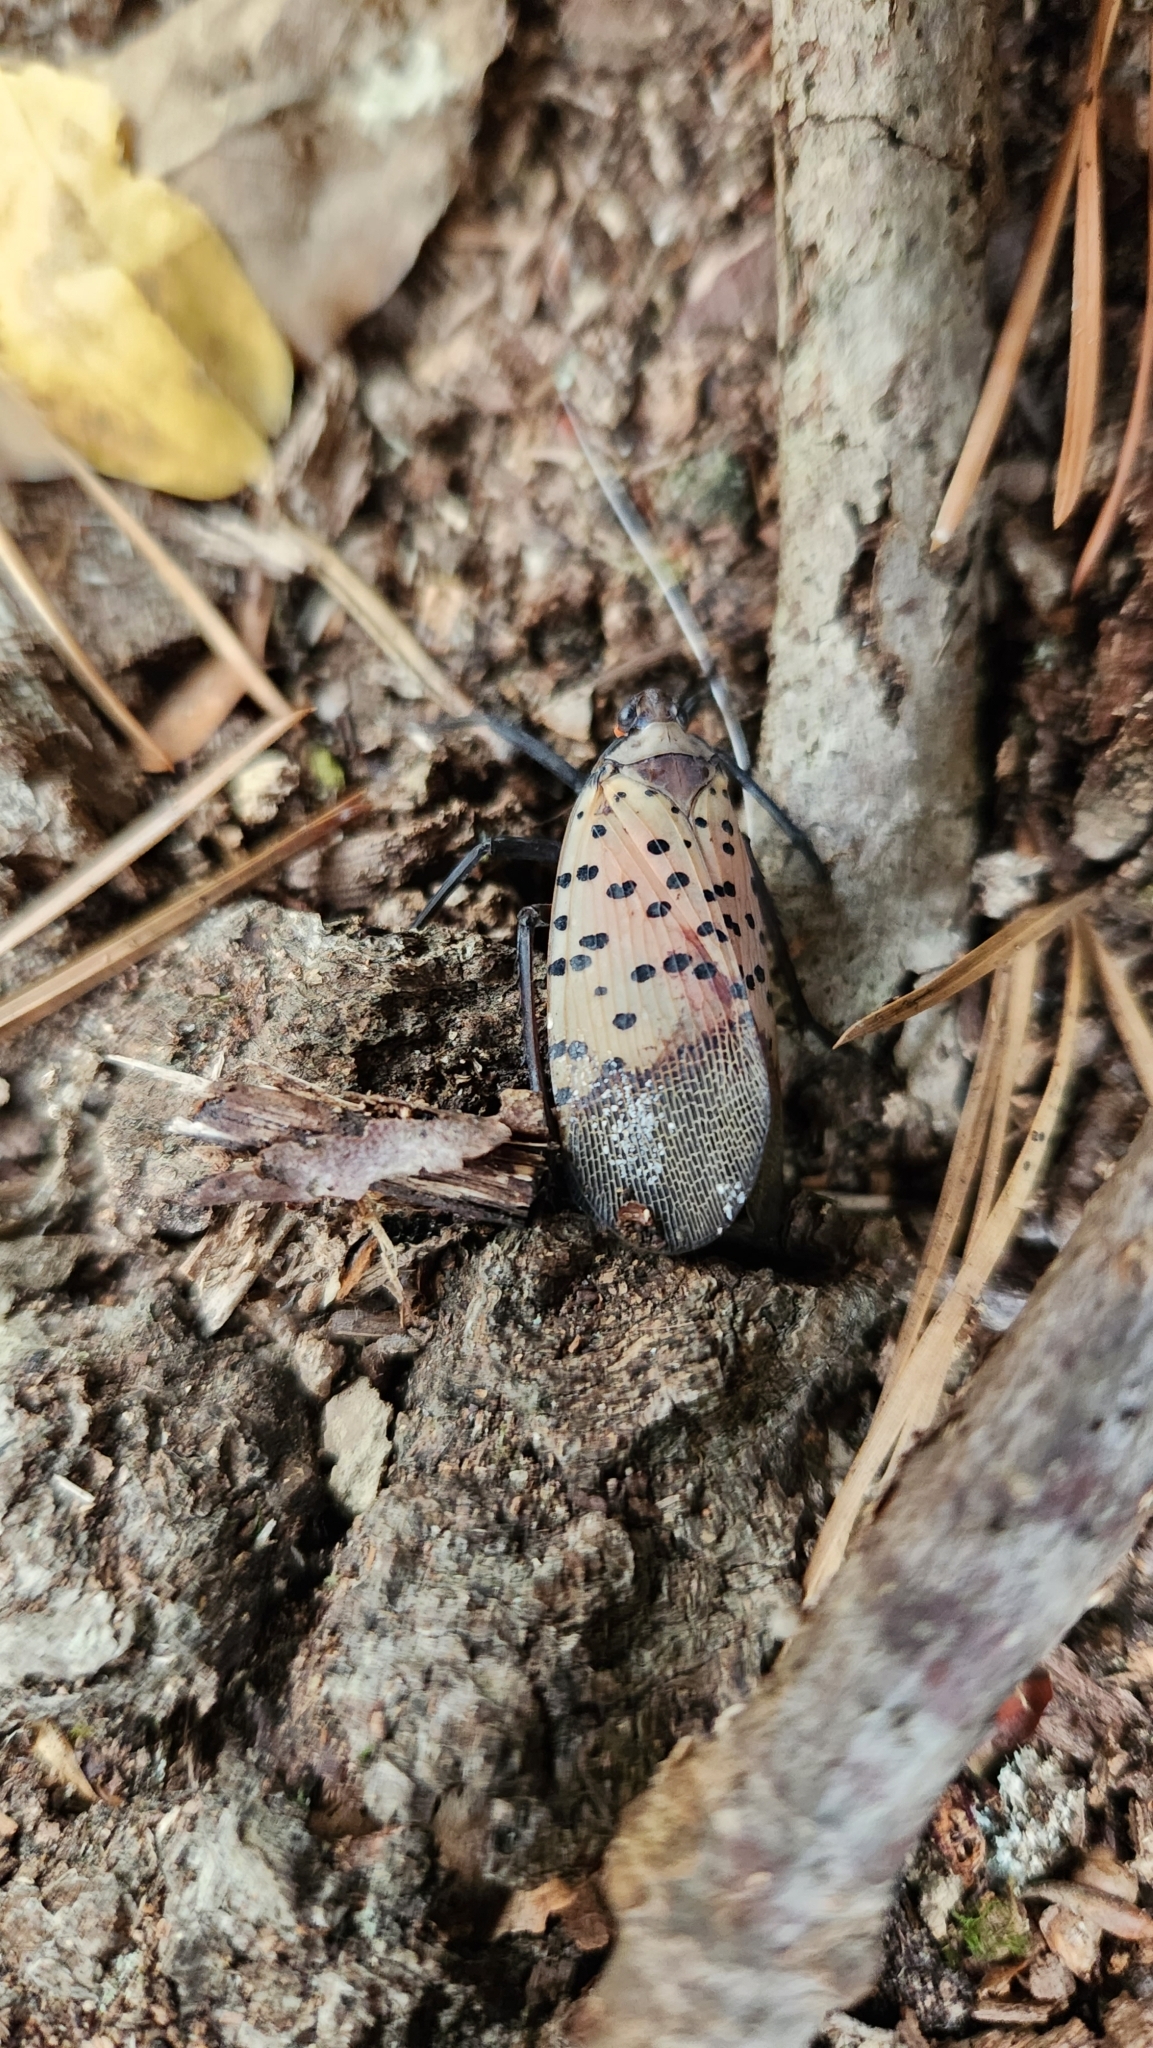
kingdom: Animalia
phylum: Arthropoda
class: Insecta
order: Hemiptera
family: Fulgoridae
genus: Lycorma
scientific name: Lycorma delicatula
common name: Spotted lanternfly
